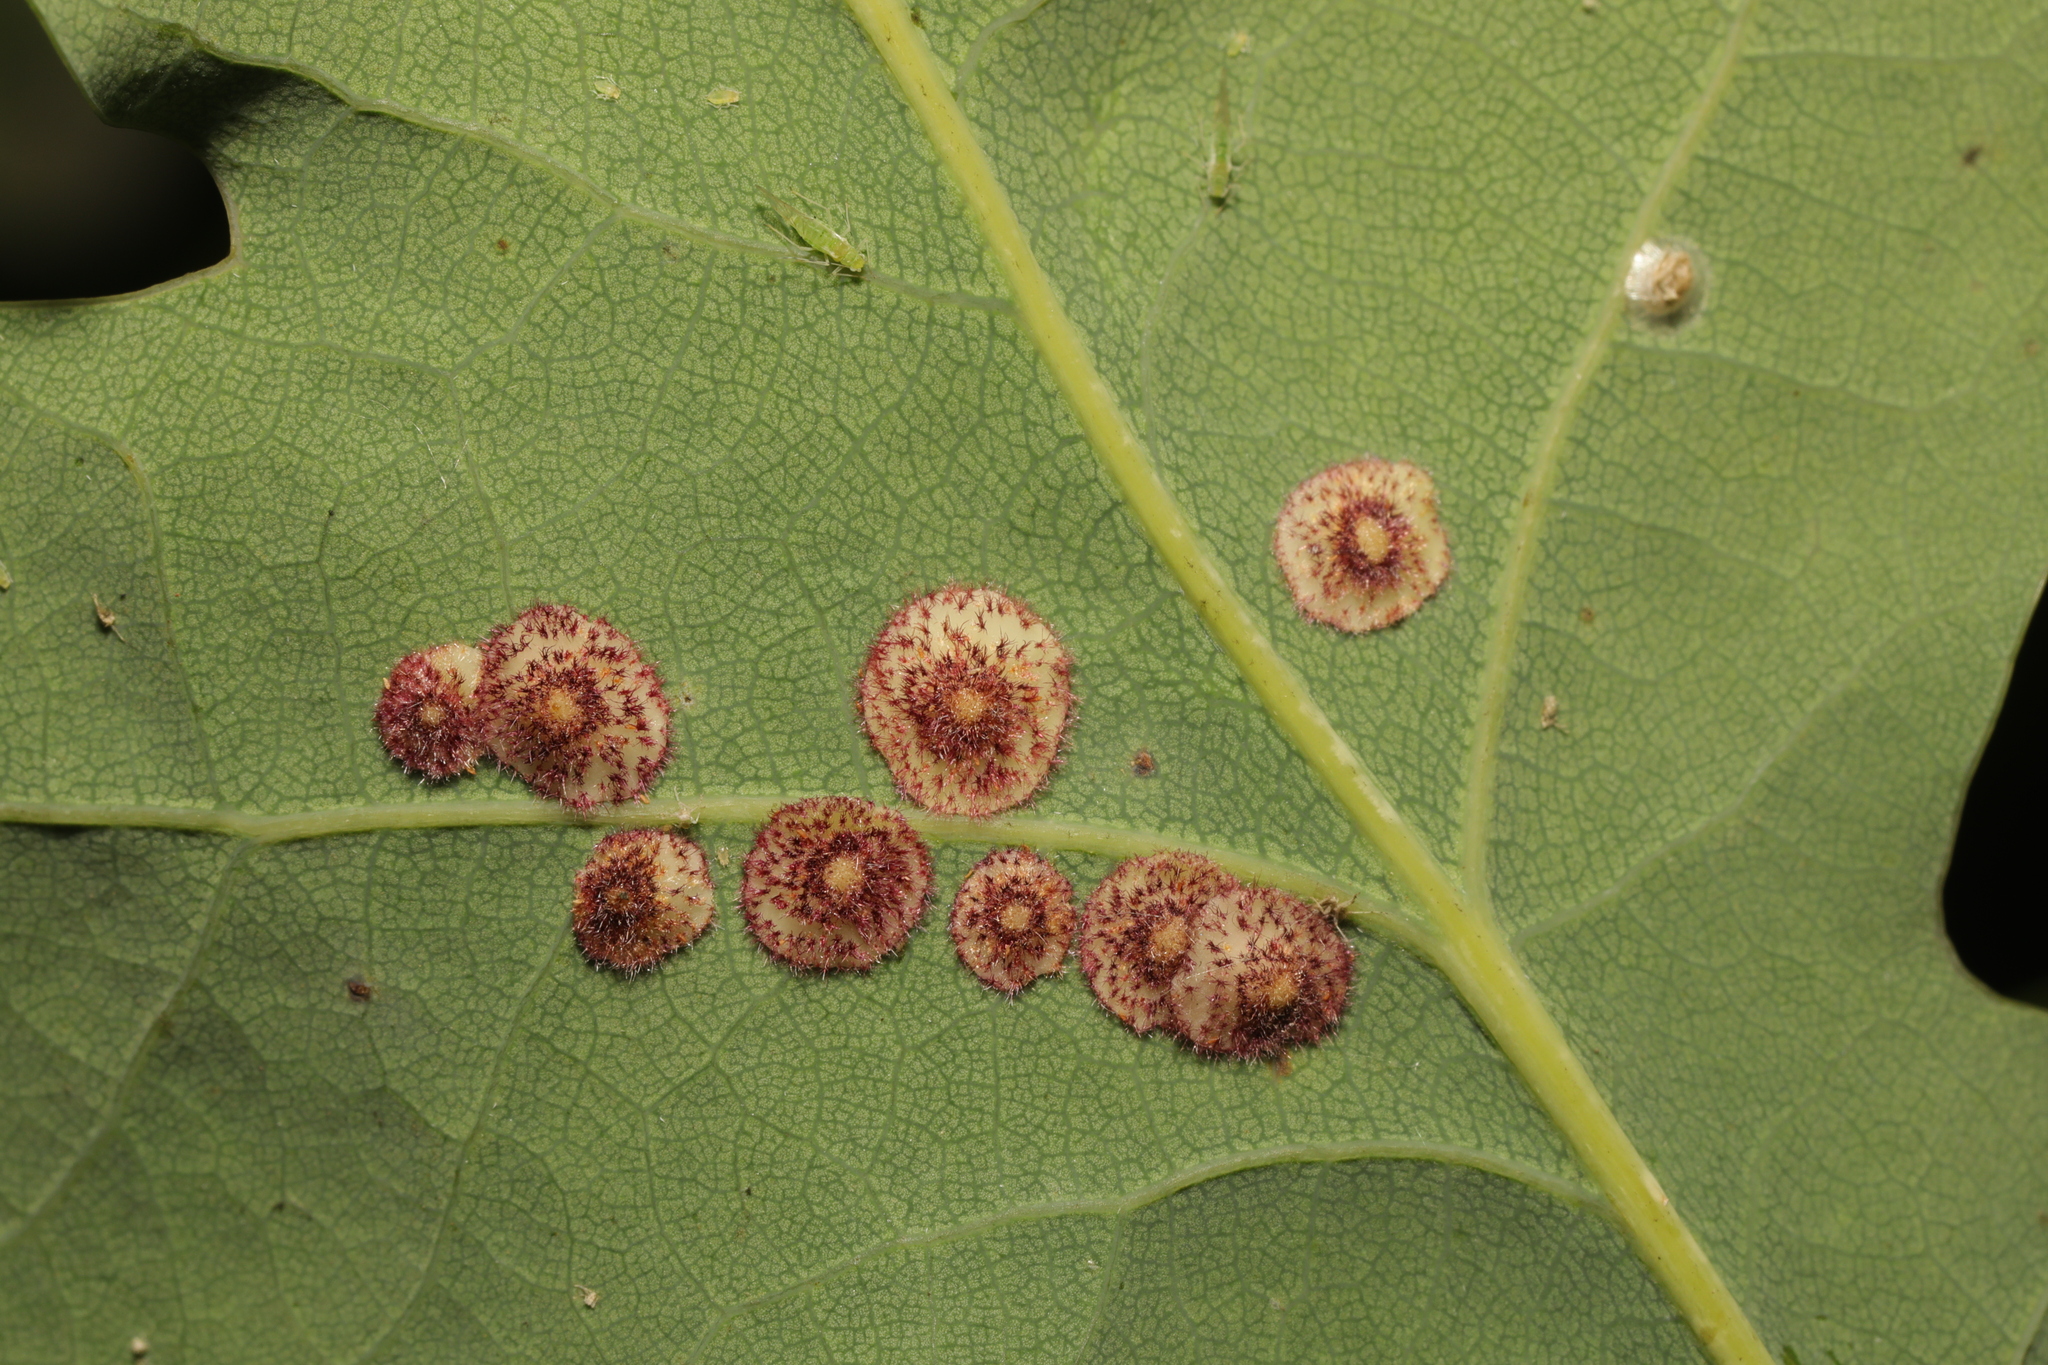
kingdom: Animalia
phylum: Arthropoda
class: Insecta
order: Hymenoptera
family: Cynipidae
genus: Neuroterus
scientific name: Neuroterus quercusbaccarum
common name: Common spangle gall
